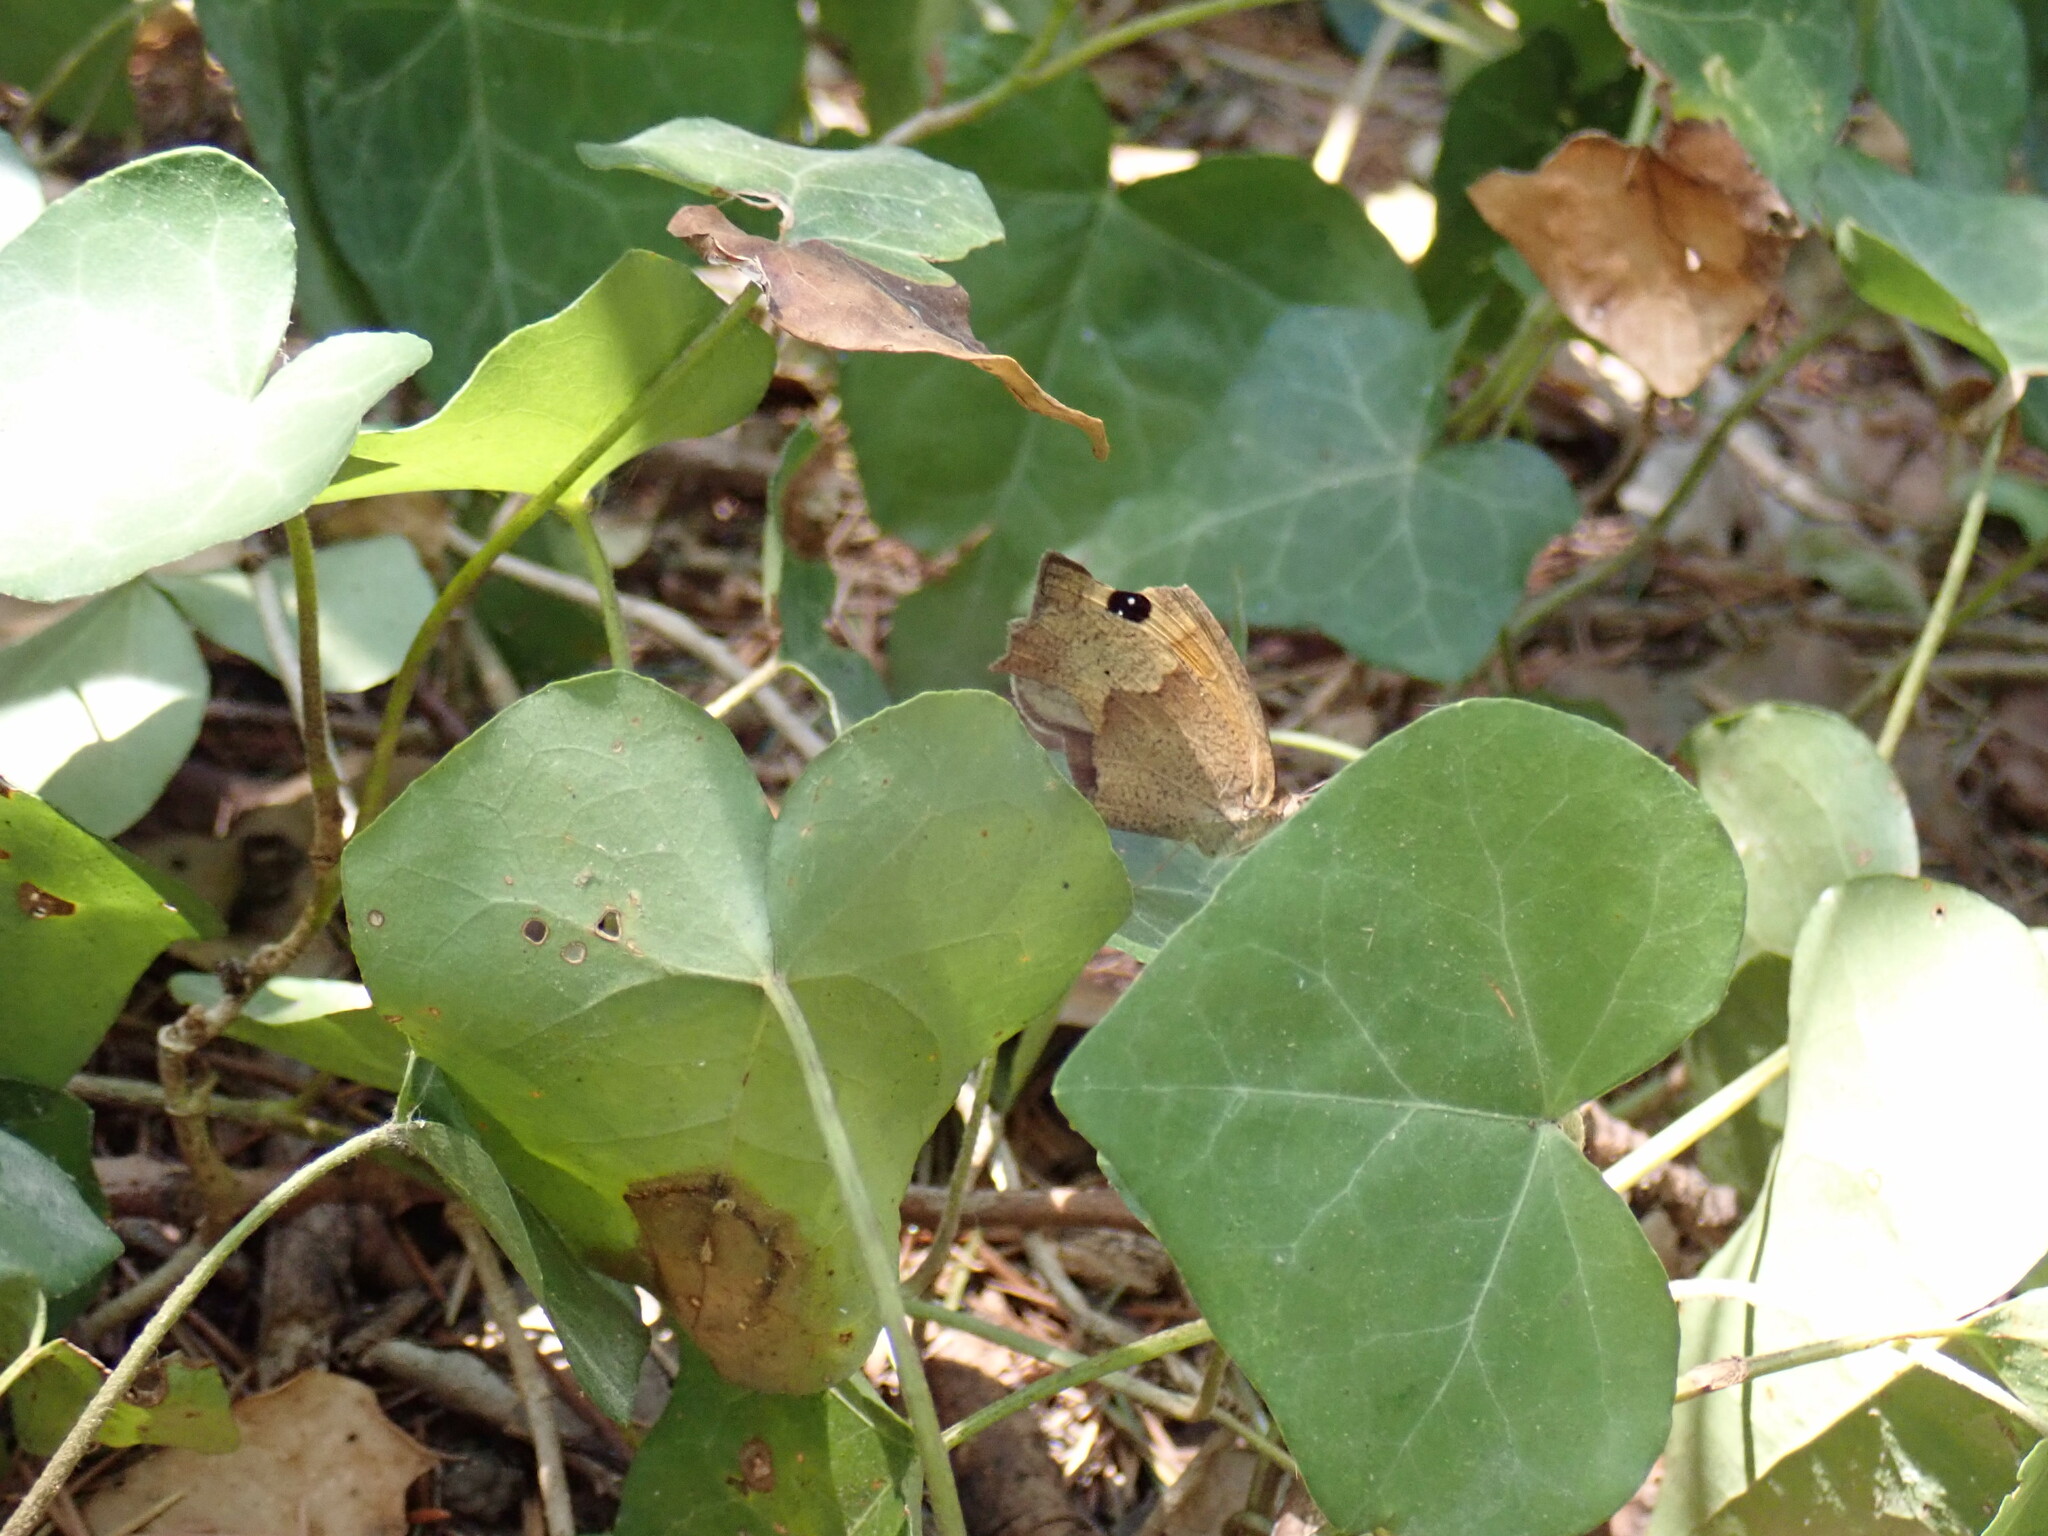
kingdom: Animalia
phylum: Arthropoda
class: Insecta
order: Lepidoptera
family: Nymphalidae
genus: Maniola
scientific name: Maniola jurtina
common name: Meadow brown
